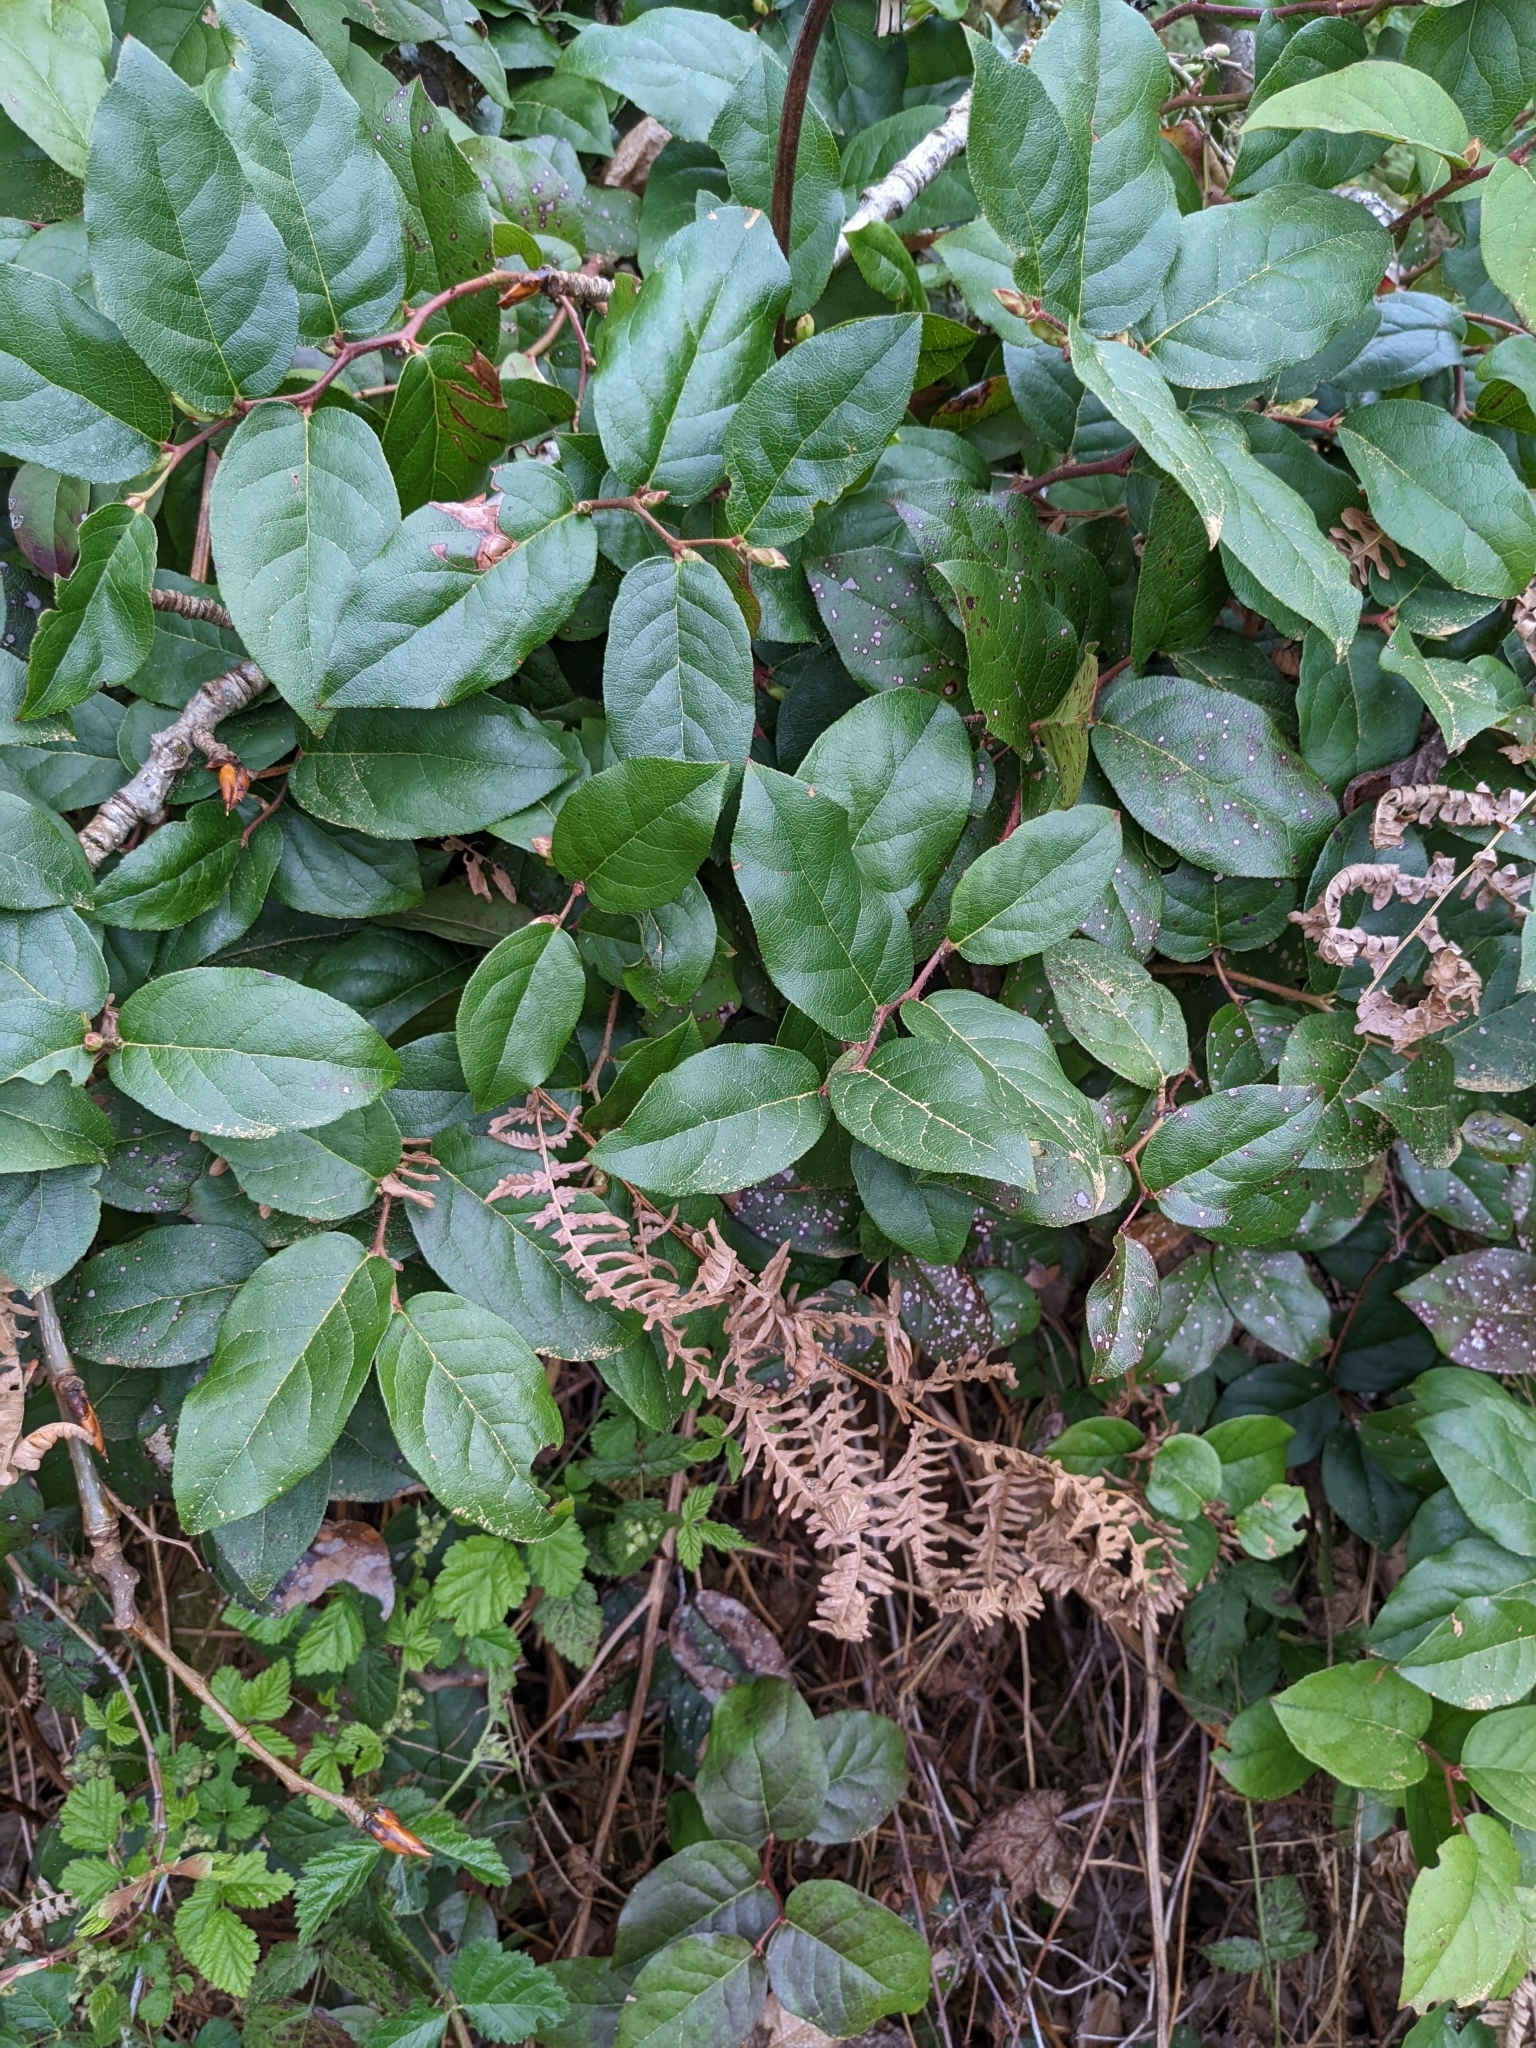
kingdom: Plantae
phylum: Tracheophyta
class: Magnoliopsida
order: Ericales
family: Ericaceae
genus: Gaultheria
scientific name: Gaultheria shallon
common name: Shallon
